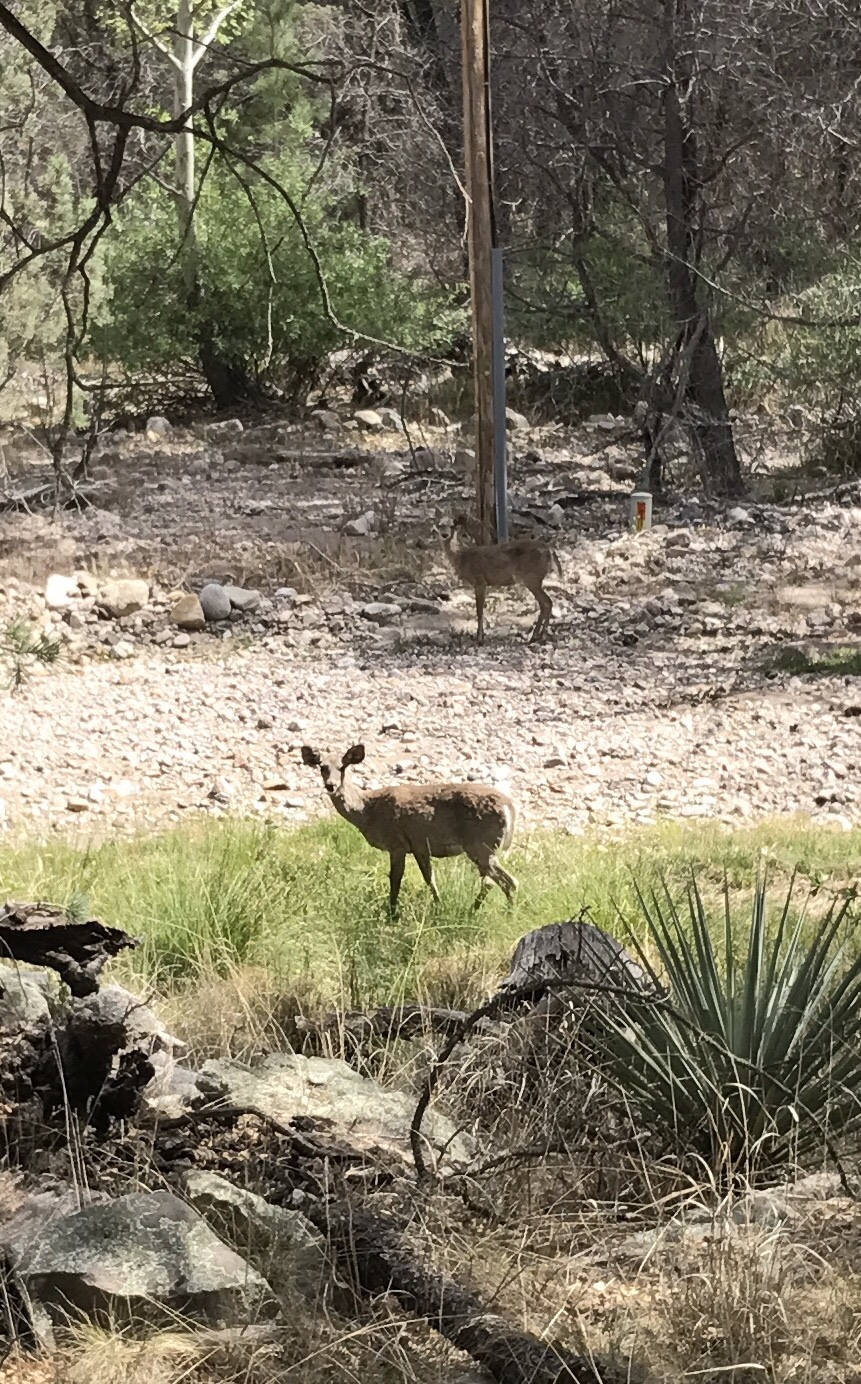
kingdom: Animalia
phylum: Chordata
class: Mammalia
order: Artiodactyla
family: Cervidae
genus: Odocoileus
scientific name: Odocoileus virginianus
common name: White-tailed deer
